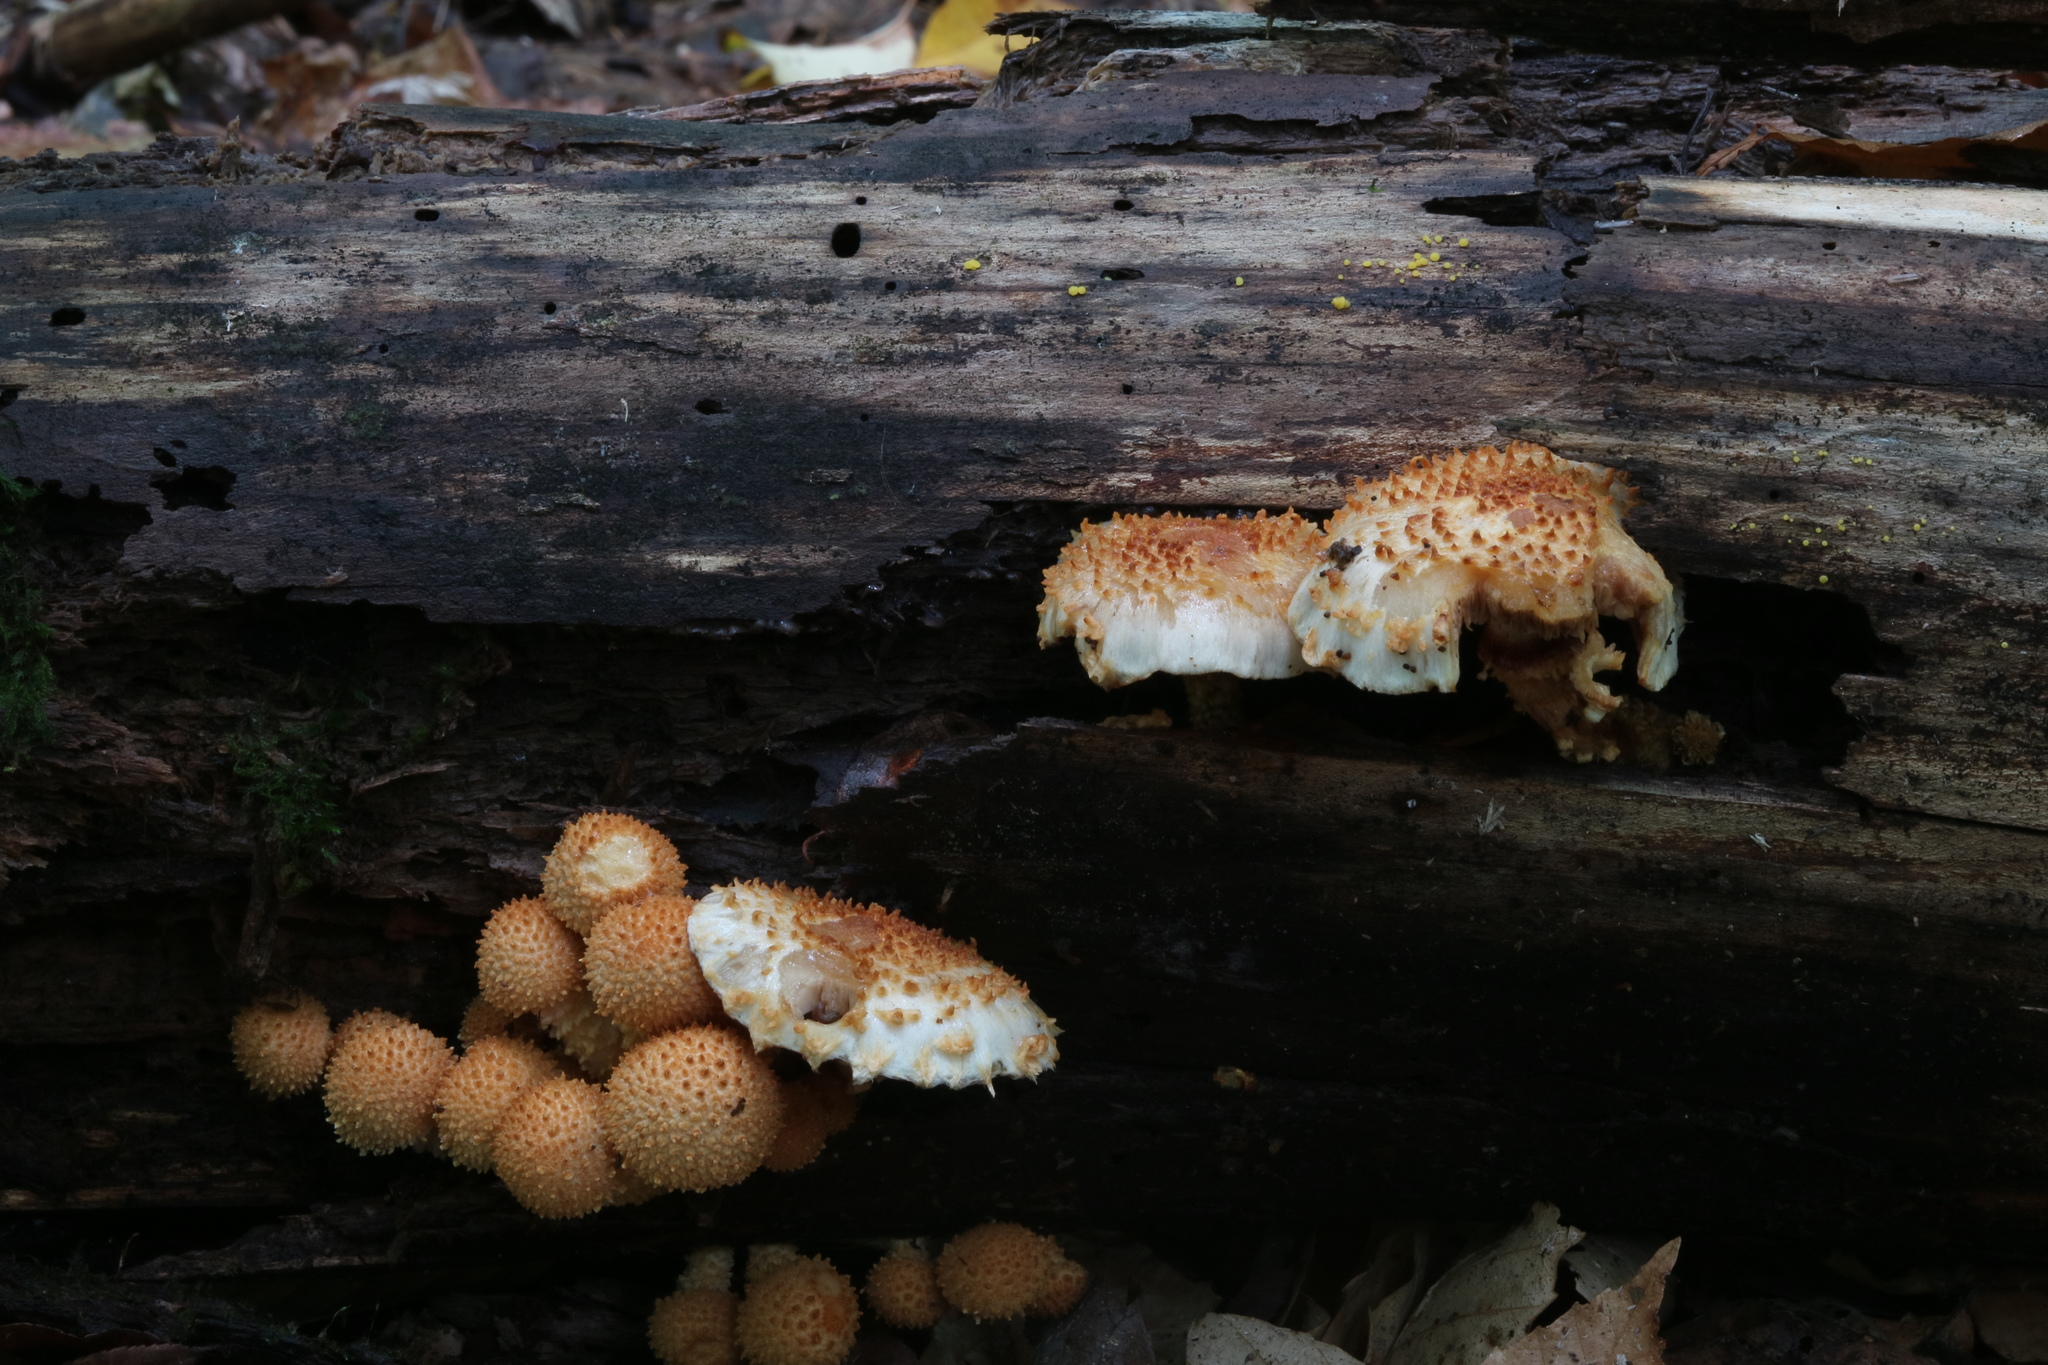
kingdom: Fungi
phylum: Basidiomycota
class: Agaricomycetes
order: Agaricales
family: Strophariaceae
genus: Pholiota
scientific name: Pholiota squarrosoides
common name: Sharp-scaly pholiota
